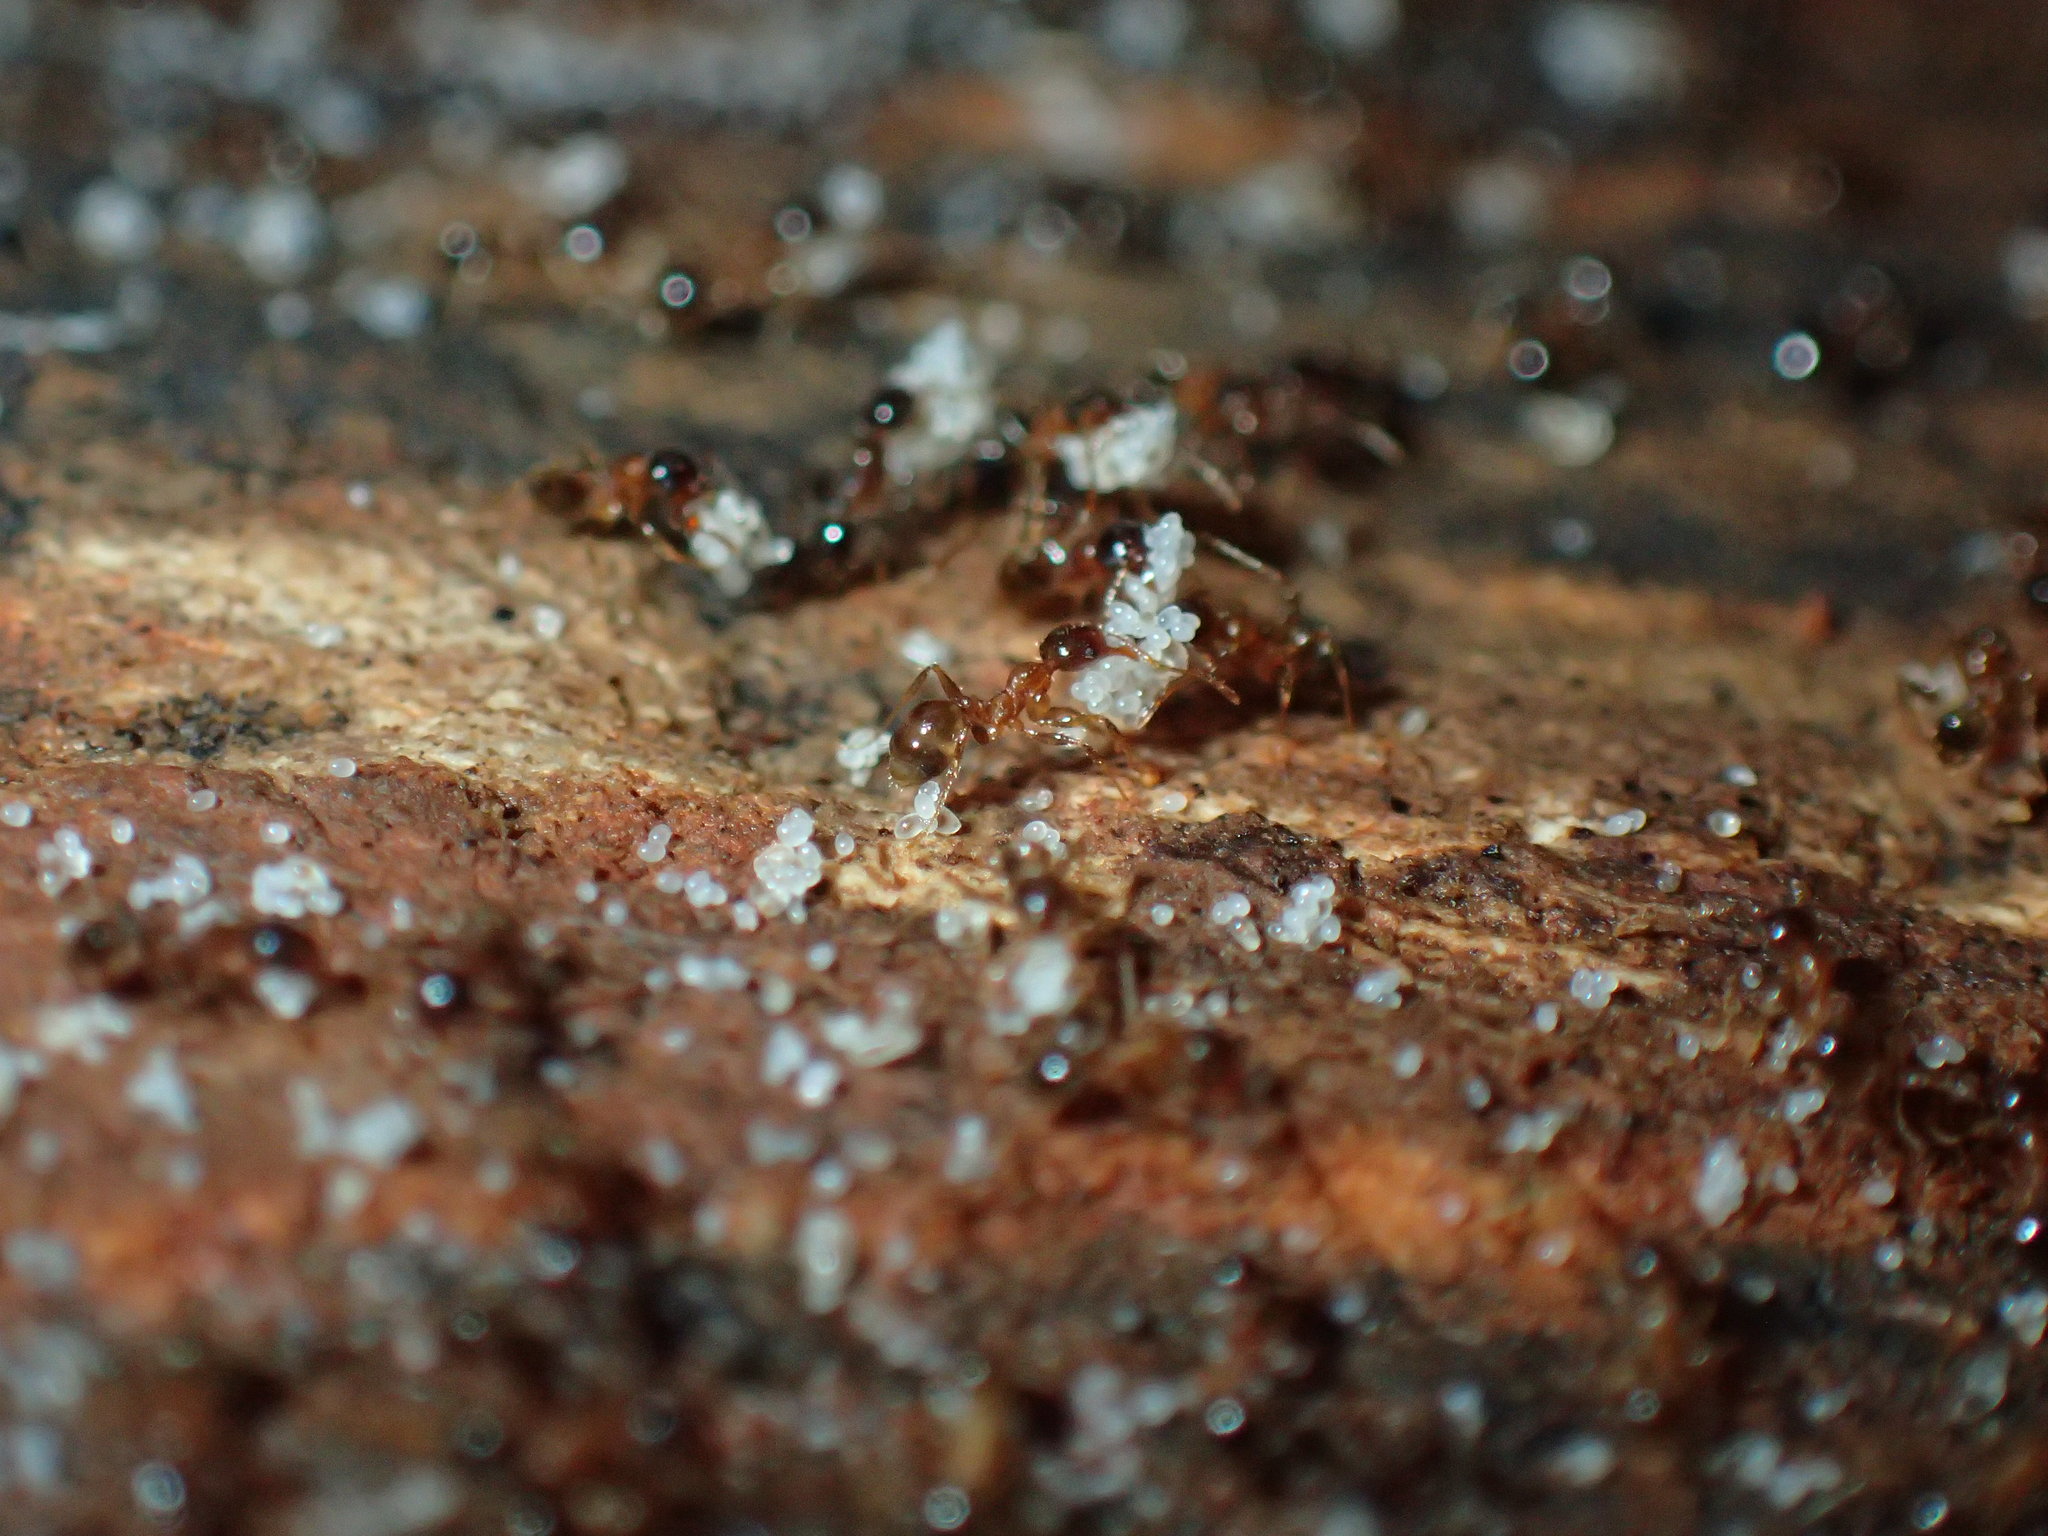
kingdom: Animalia
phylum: Arthropoda
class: Insecta
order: Hymenoptera
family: Formicidae
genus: Pheidole
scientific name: Pheidole megacephala
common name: Bigheaded ant
